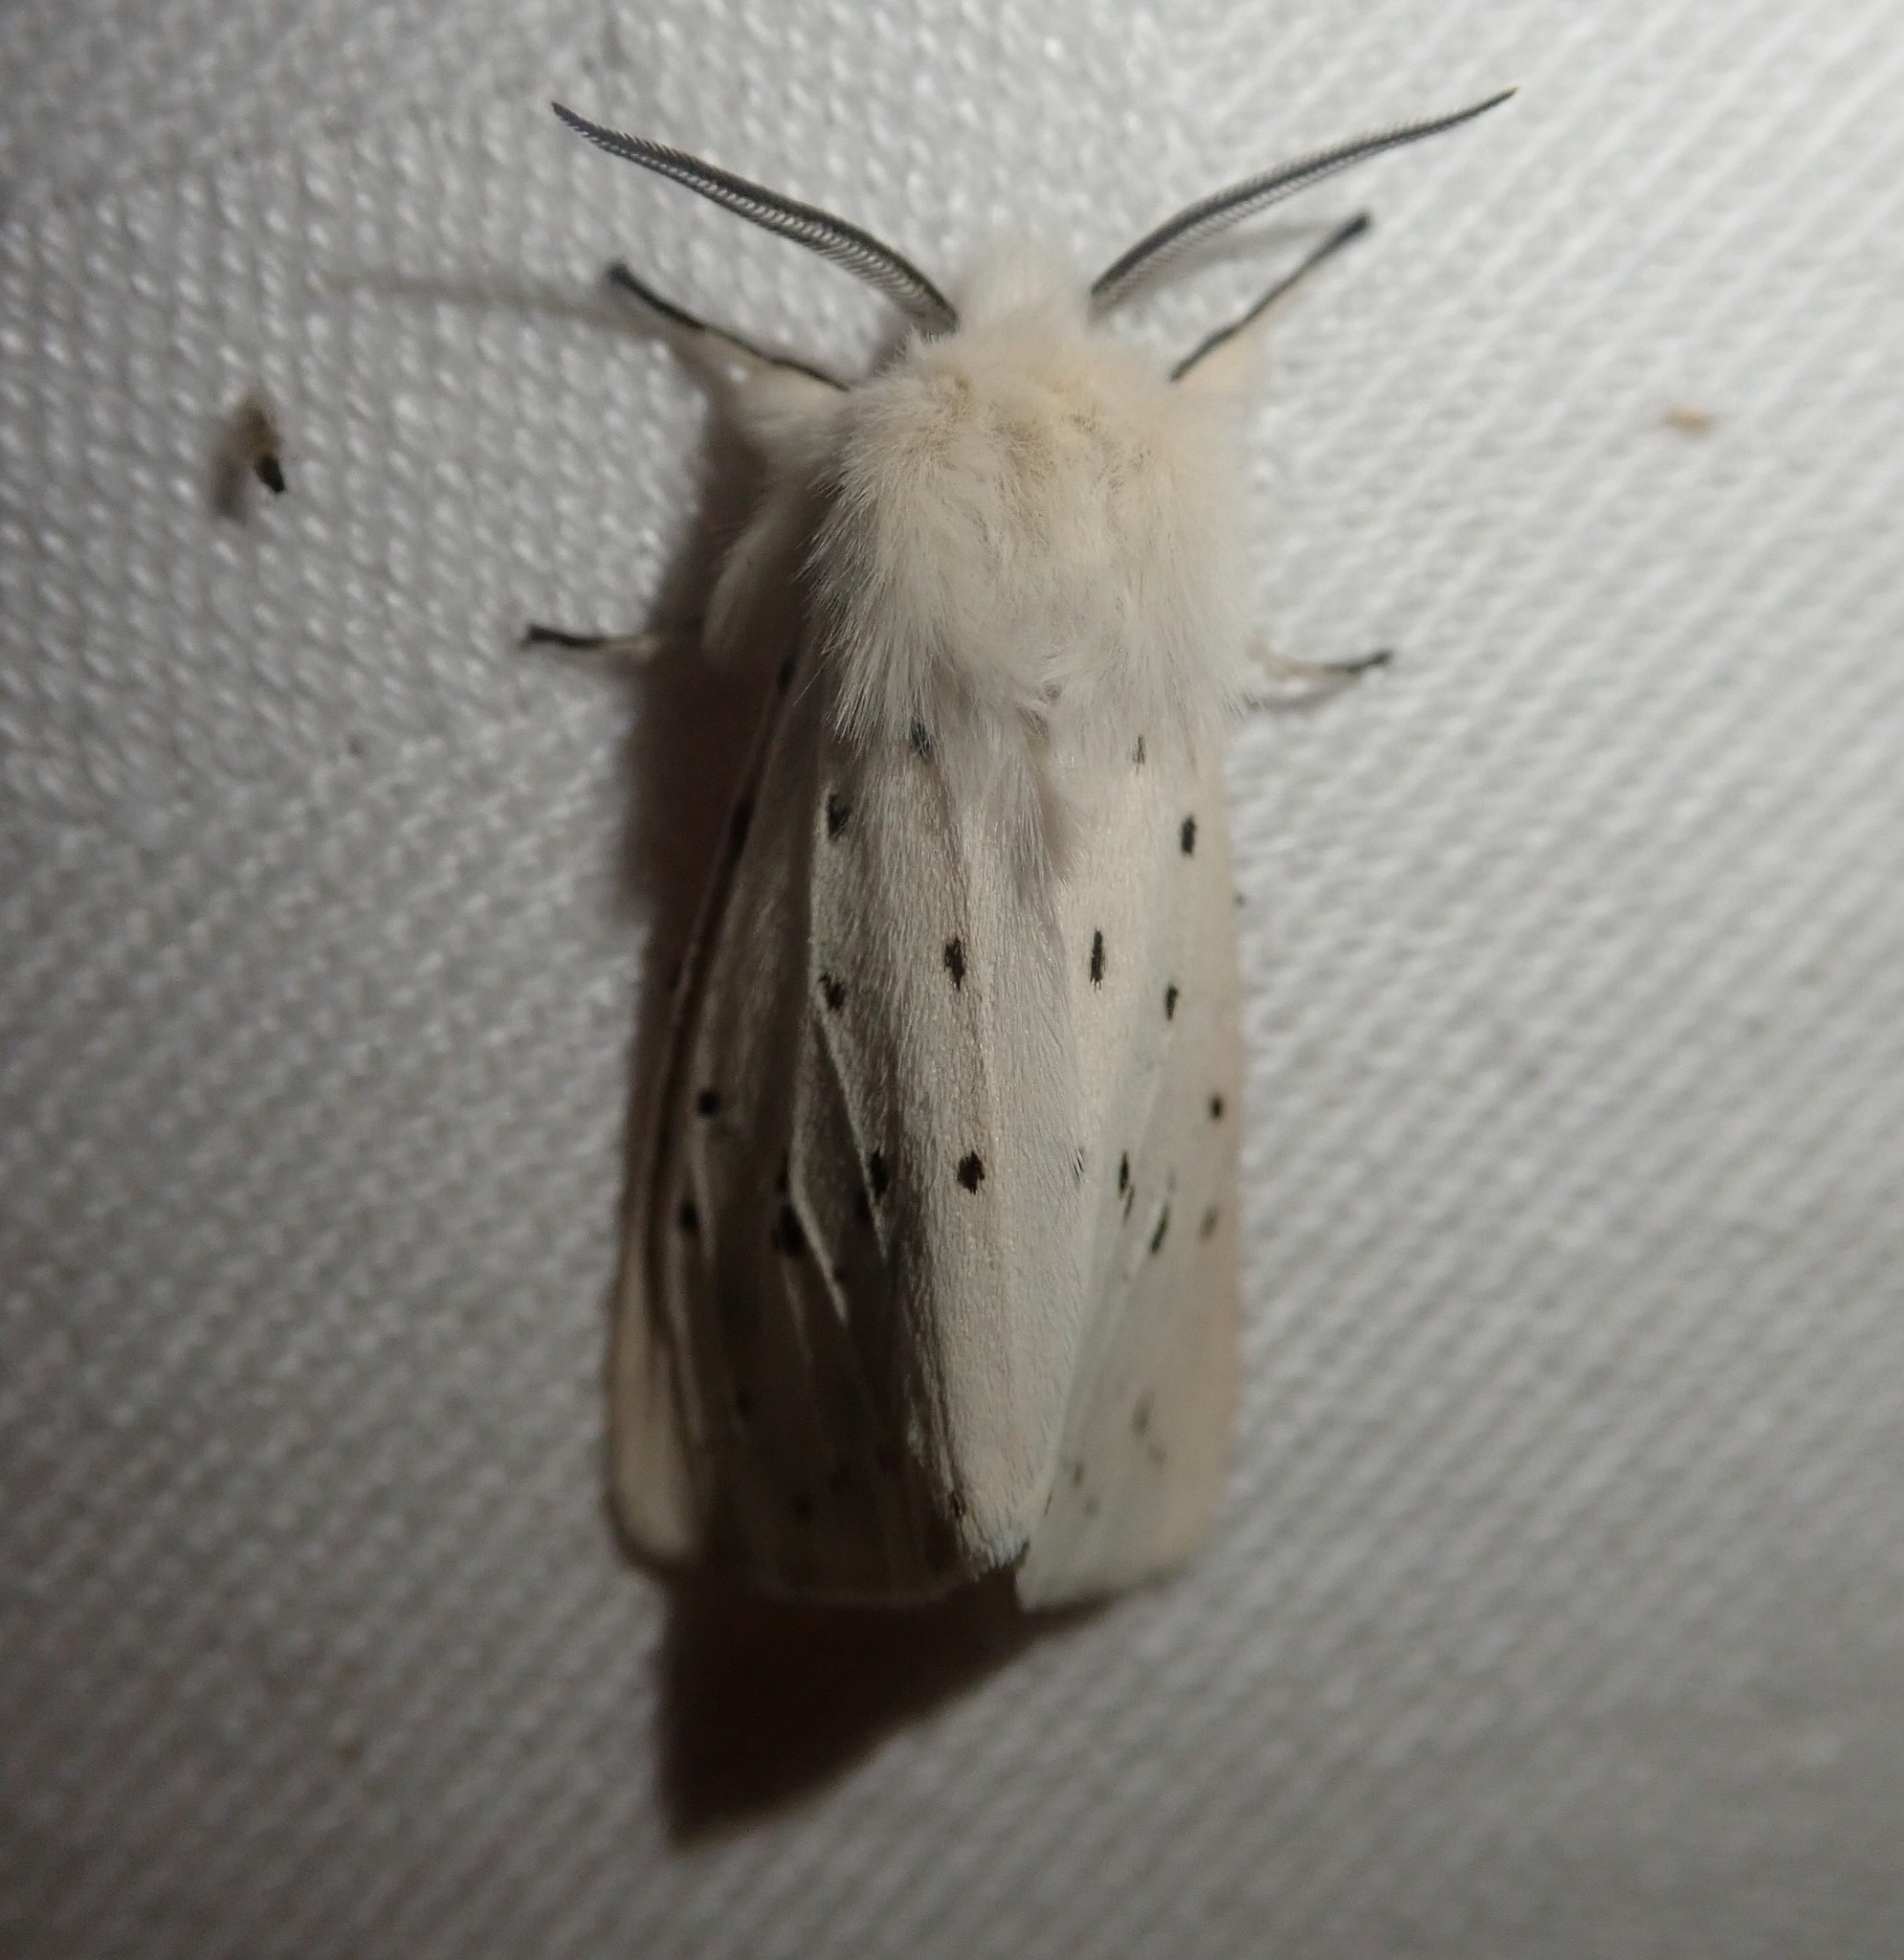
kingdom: Animalia
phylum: Arthropoda
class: Insecta
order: Lepidoptera
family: Erebidae
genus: Spilosoma
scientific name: Spilosoma lubricipeda
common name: White ermine
